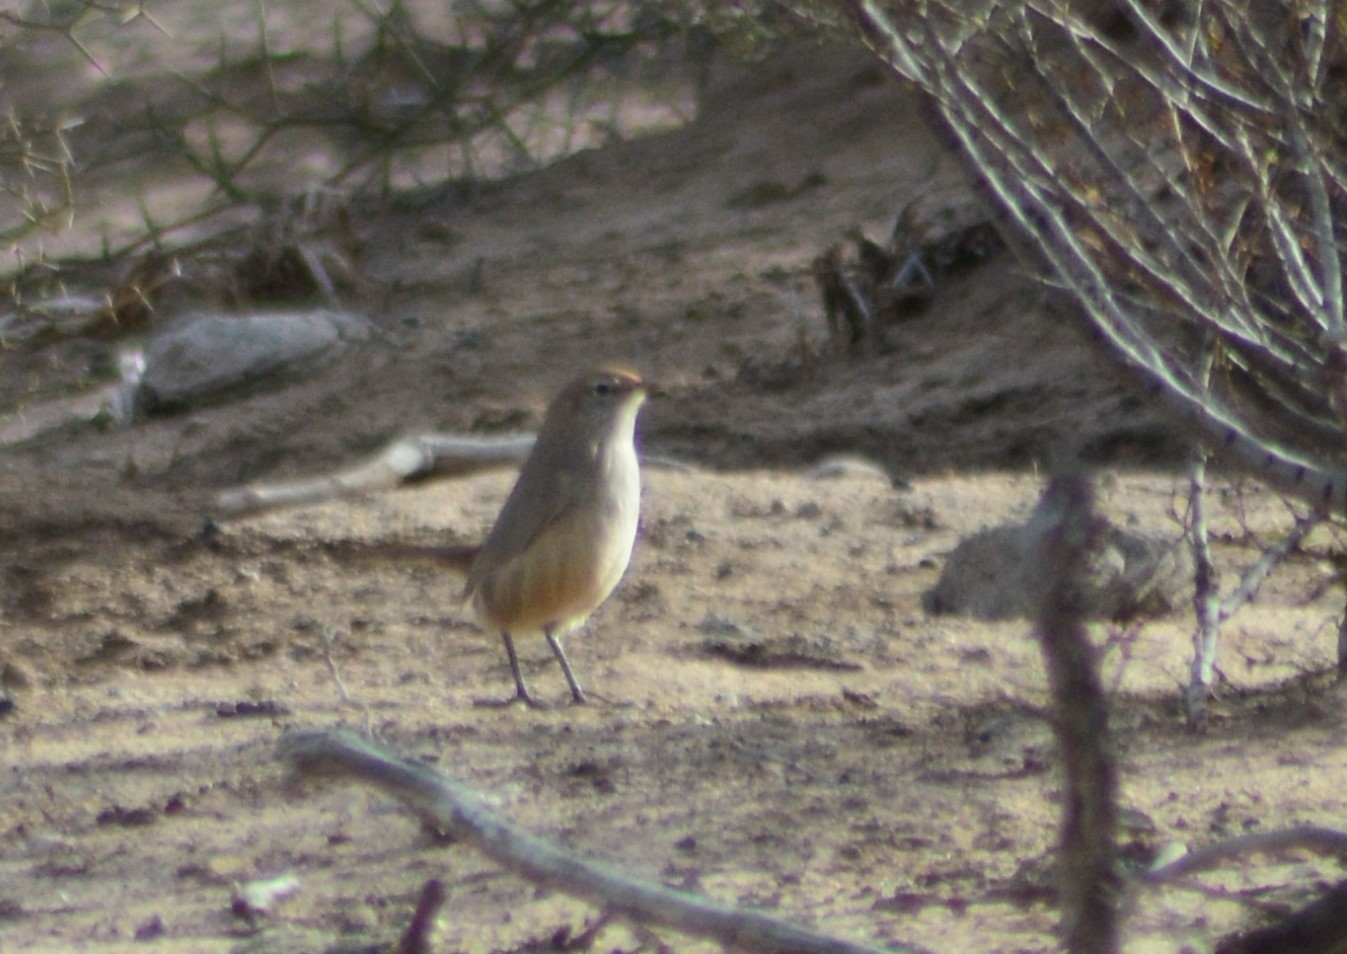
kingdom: Animalia
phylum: Chordata
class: Aves
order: Passeriformes
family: Rhinocryptidae
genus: Teledromas
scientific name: Teledromas fuscus
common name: Sandy gallito
